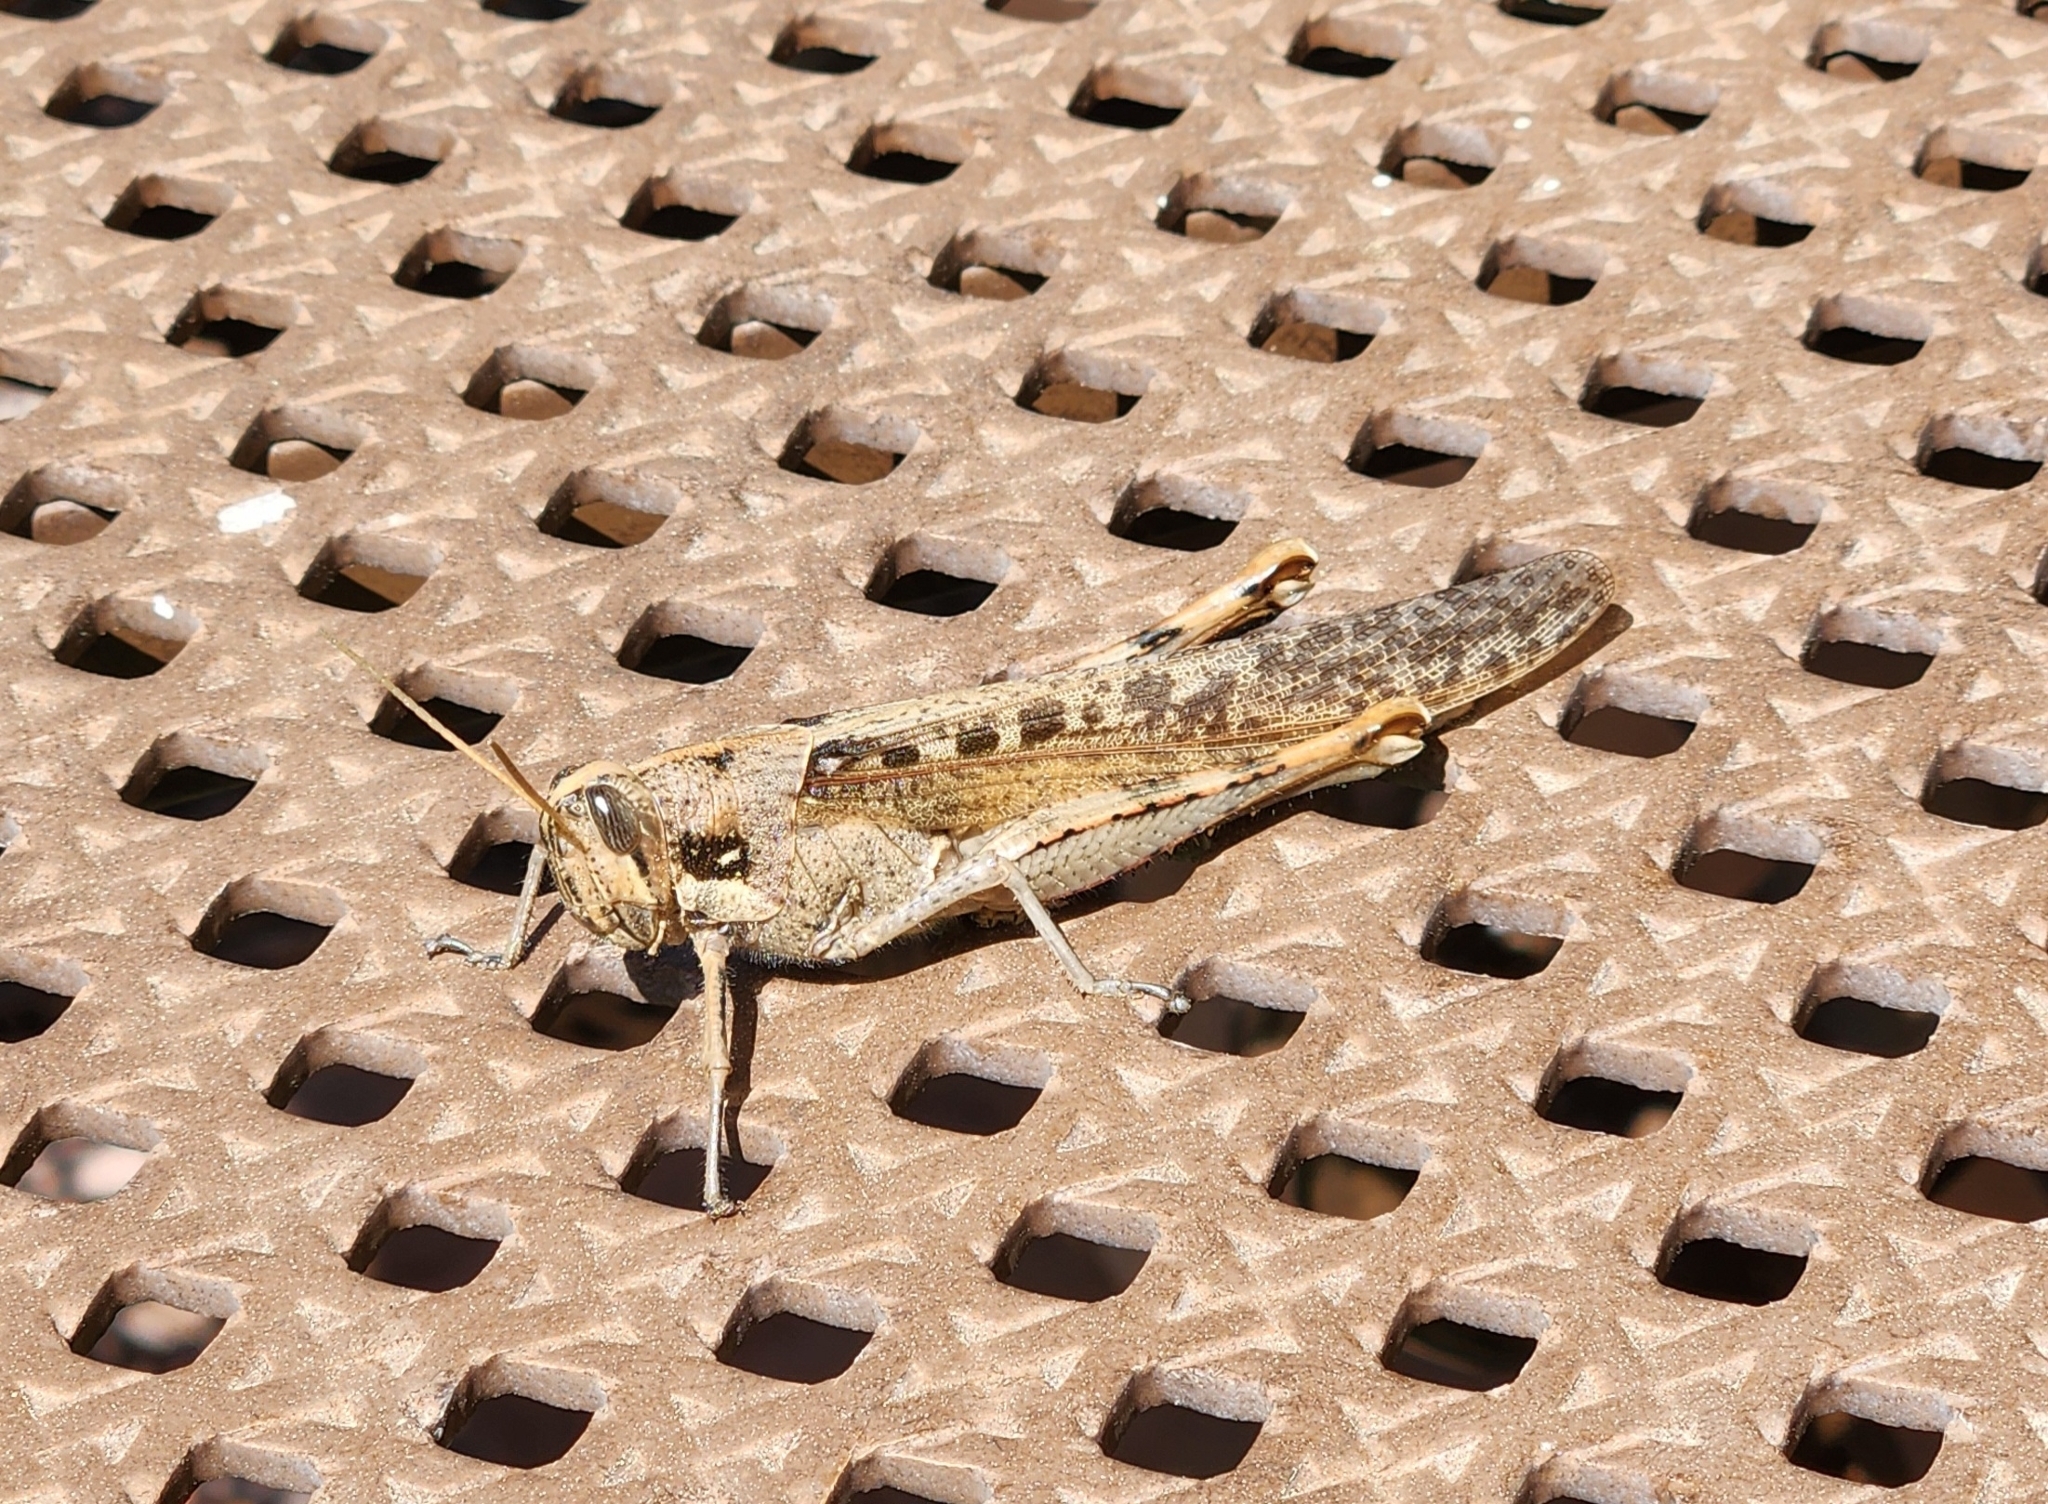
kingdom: Animalia
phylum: Arthropoda
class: Insecta
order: Orthoptera
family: Acrididae
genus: Schistocerca
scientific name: Schistocerca nitens
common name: Vagrant grasshopper
